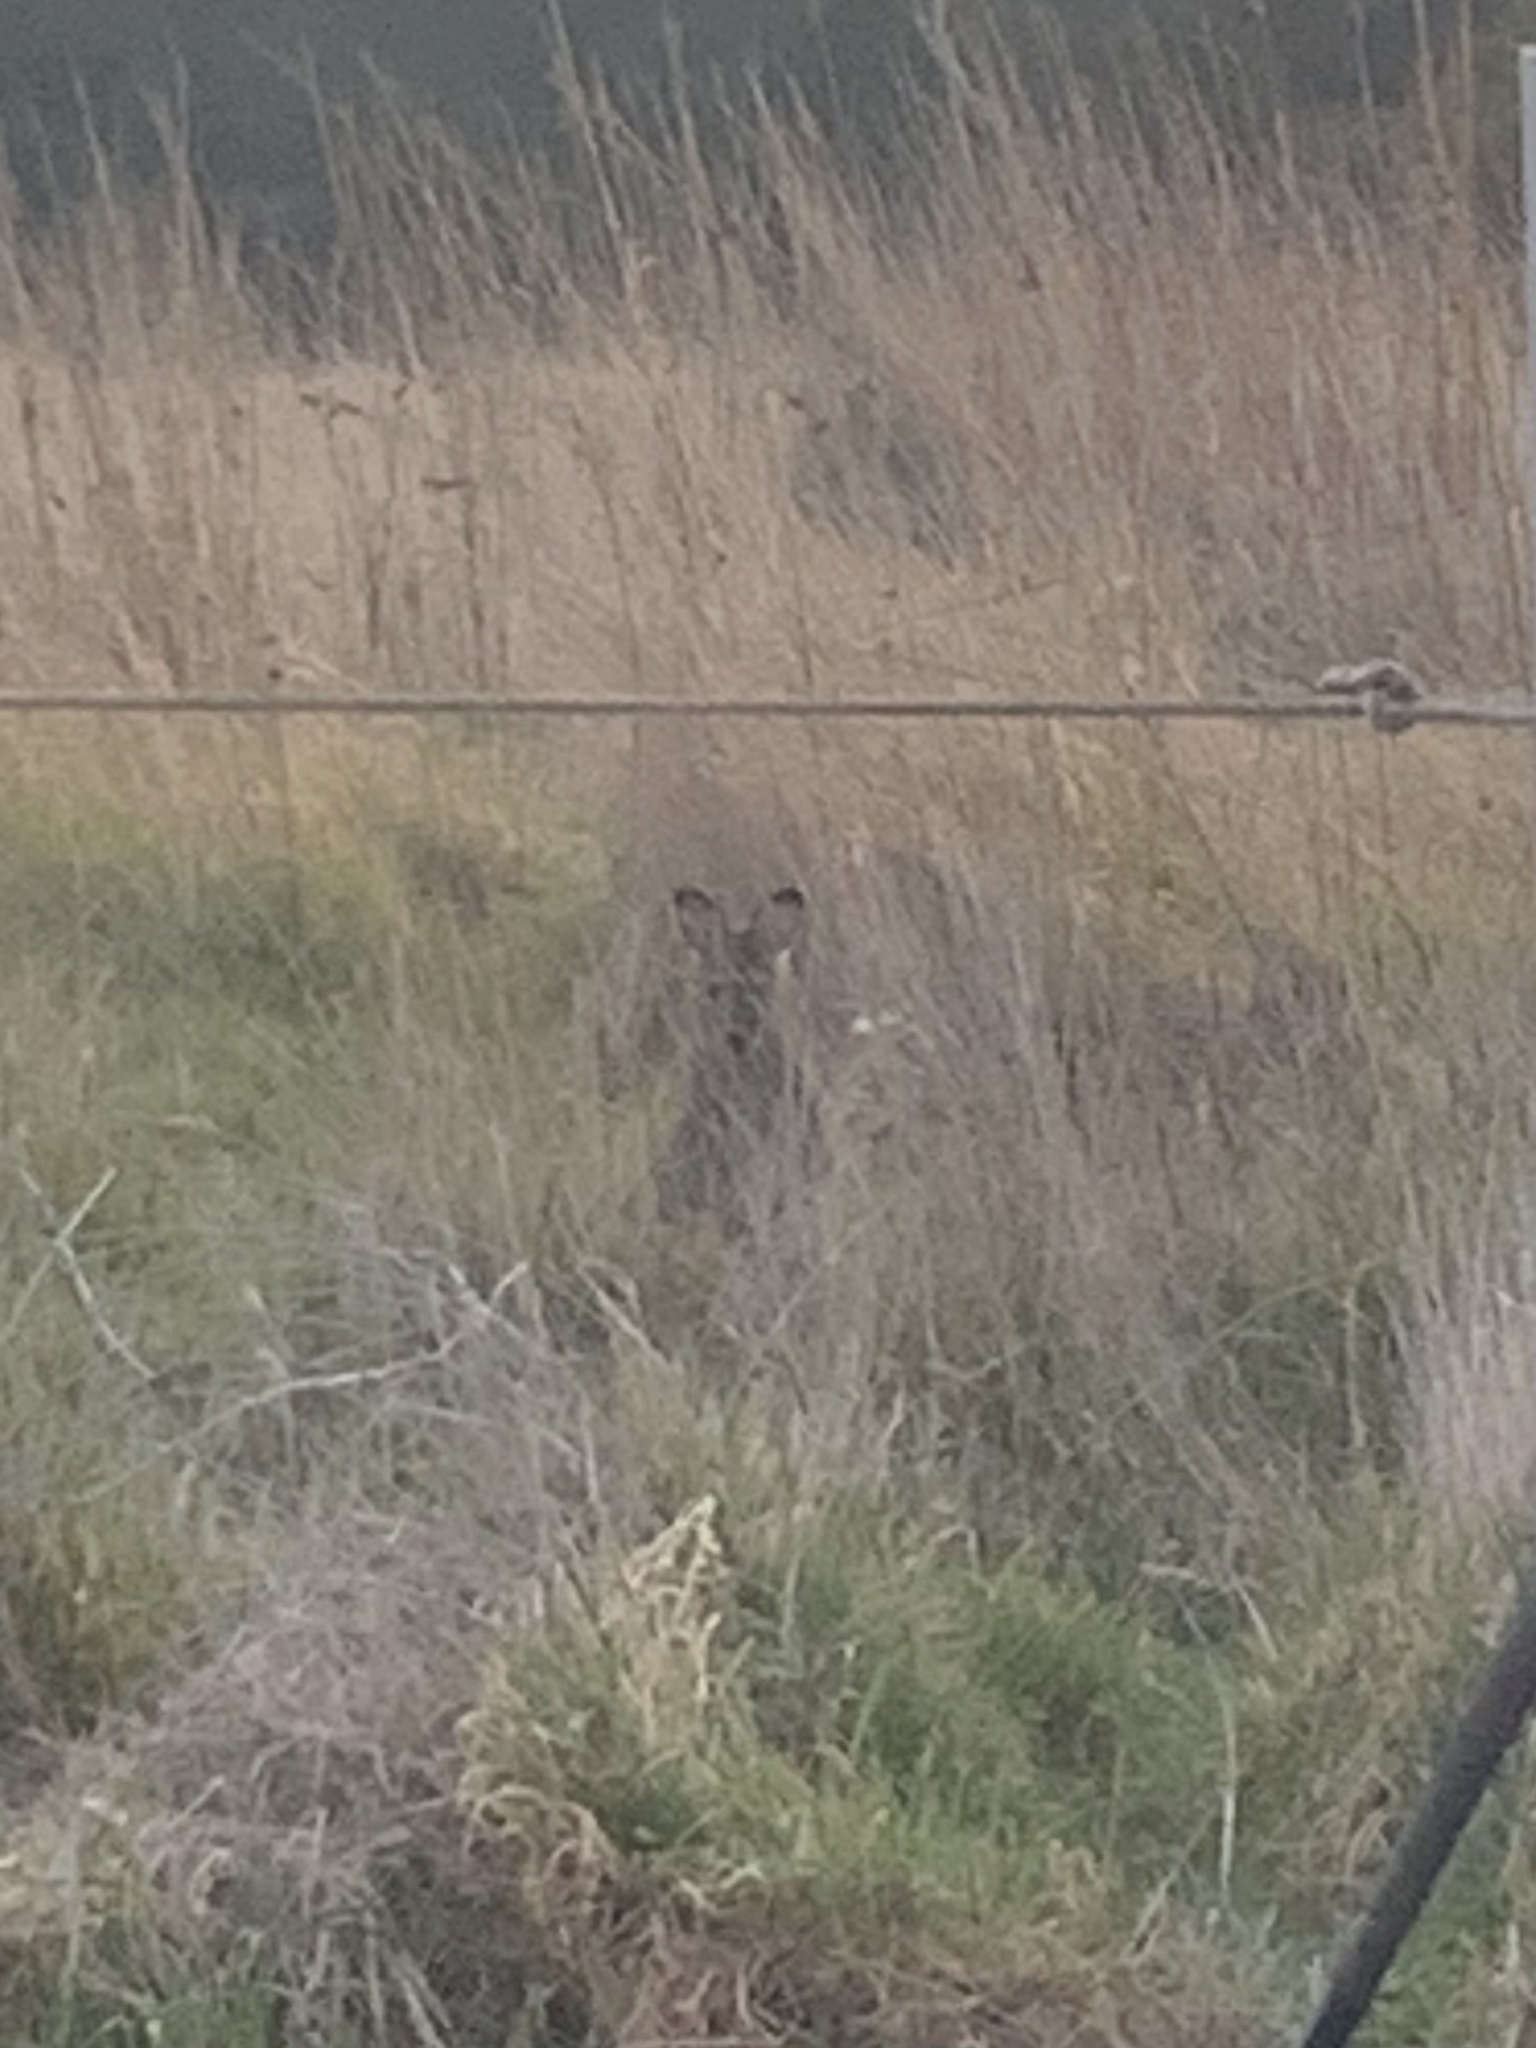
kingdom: Animalia
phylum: Chordata
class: Mammalia
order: Diprotodontia
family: Macropodidae
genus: Notamacropus
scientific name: Notamacropus rufogriseus
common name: Red-necked wallaby
